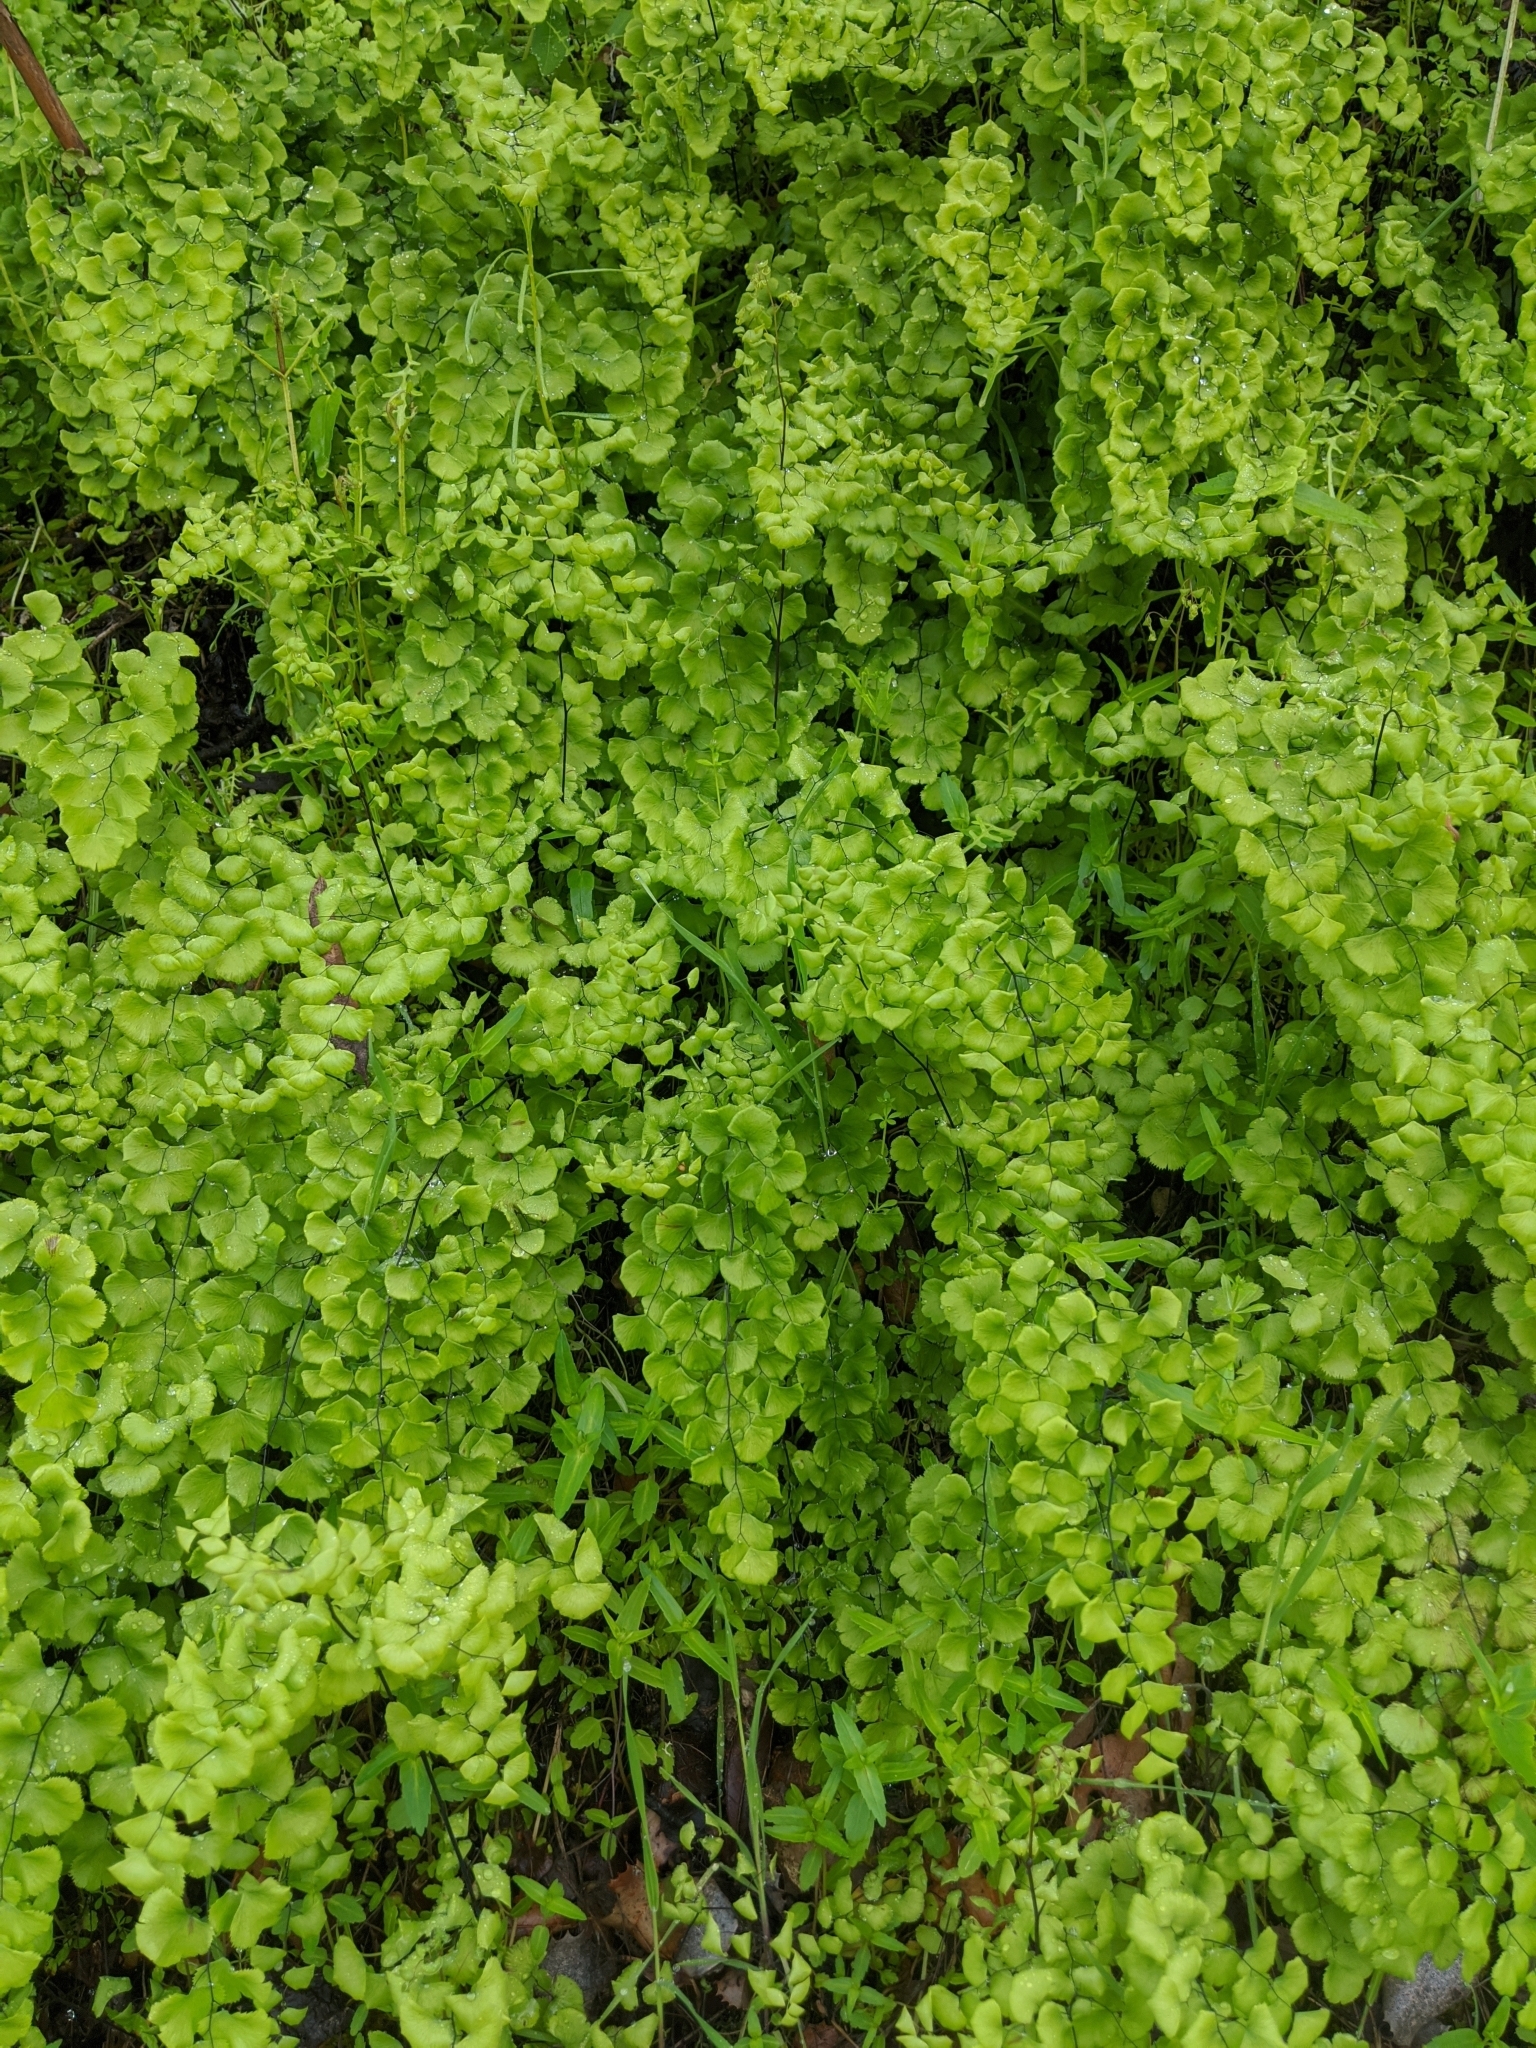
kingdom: Plantae
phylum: Tracheophyta
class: Polypodiopsida
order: Polypodiales
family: Pteridaceae
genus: Adiantum
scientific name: Adiantum jordanii
